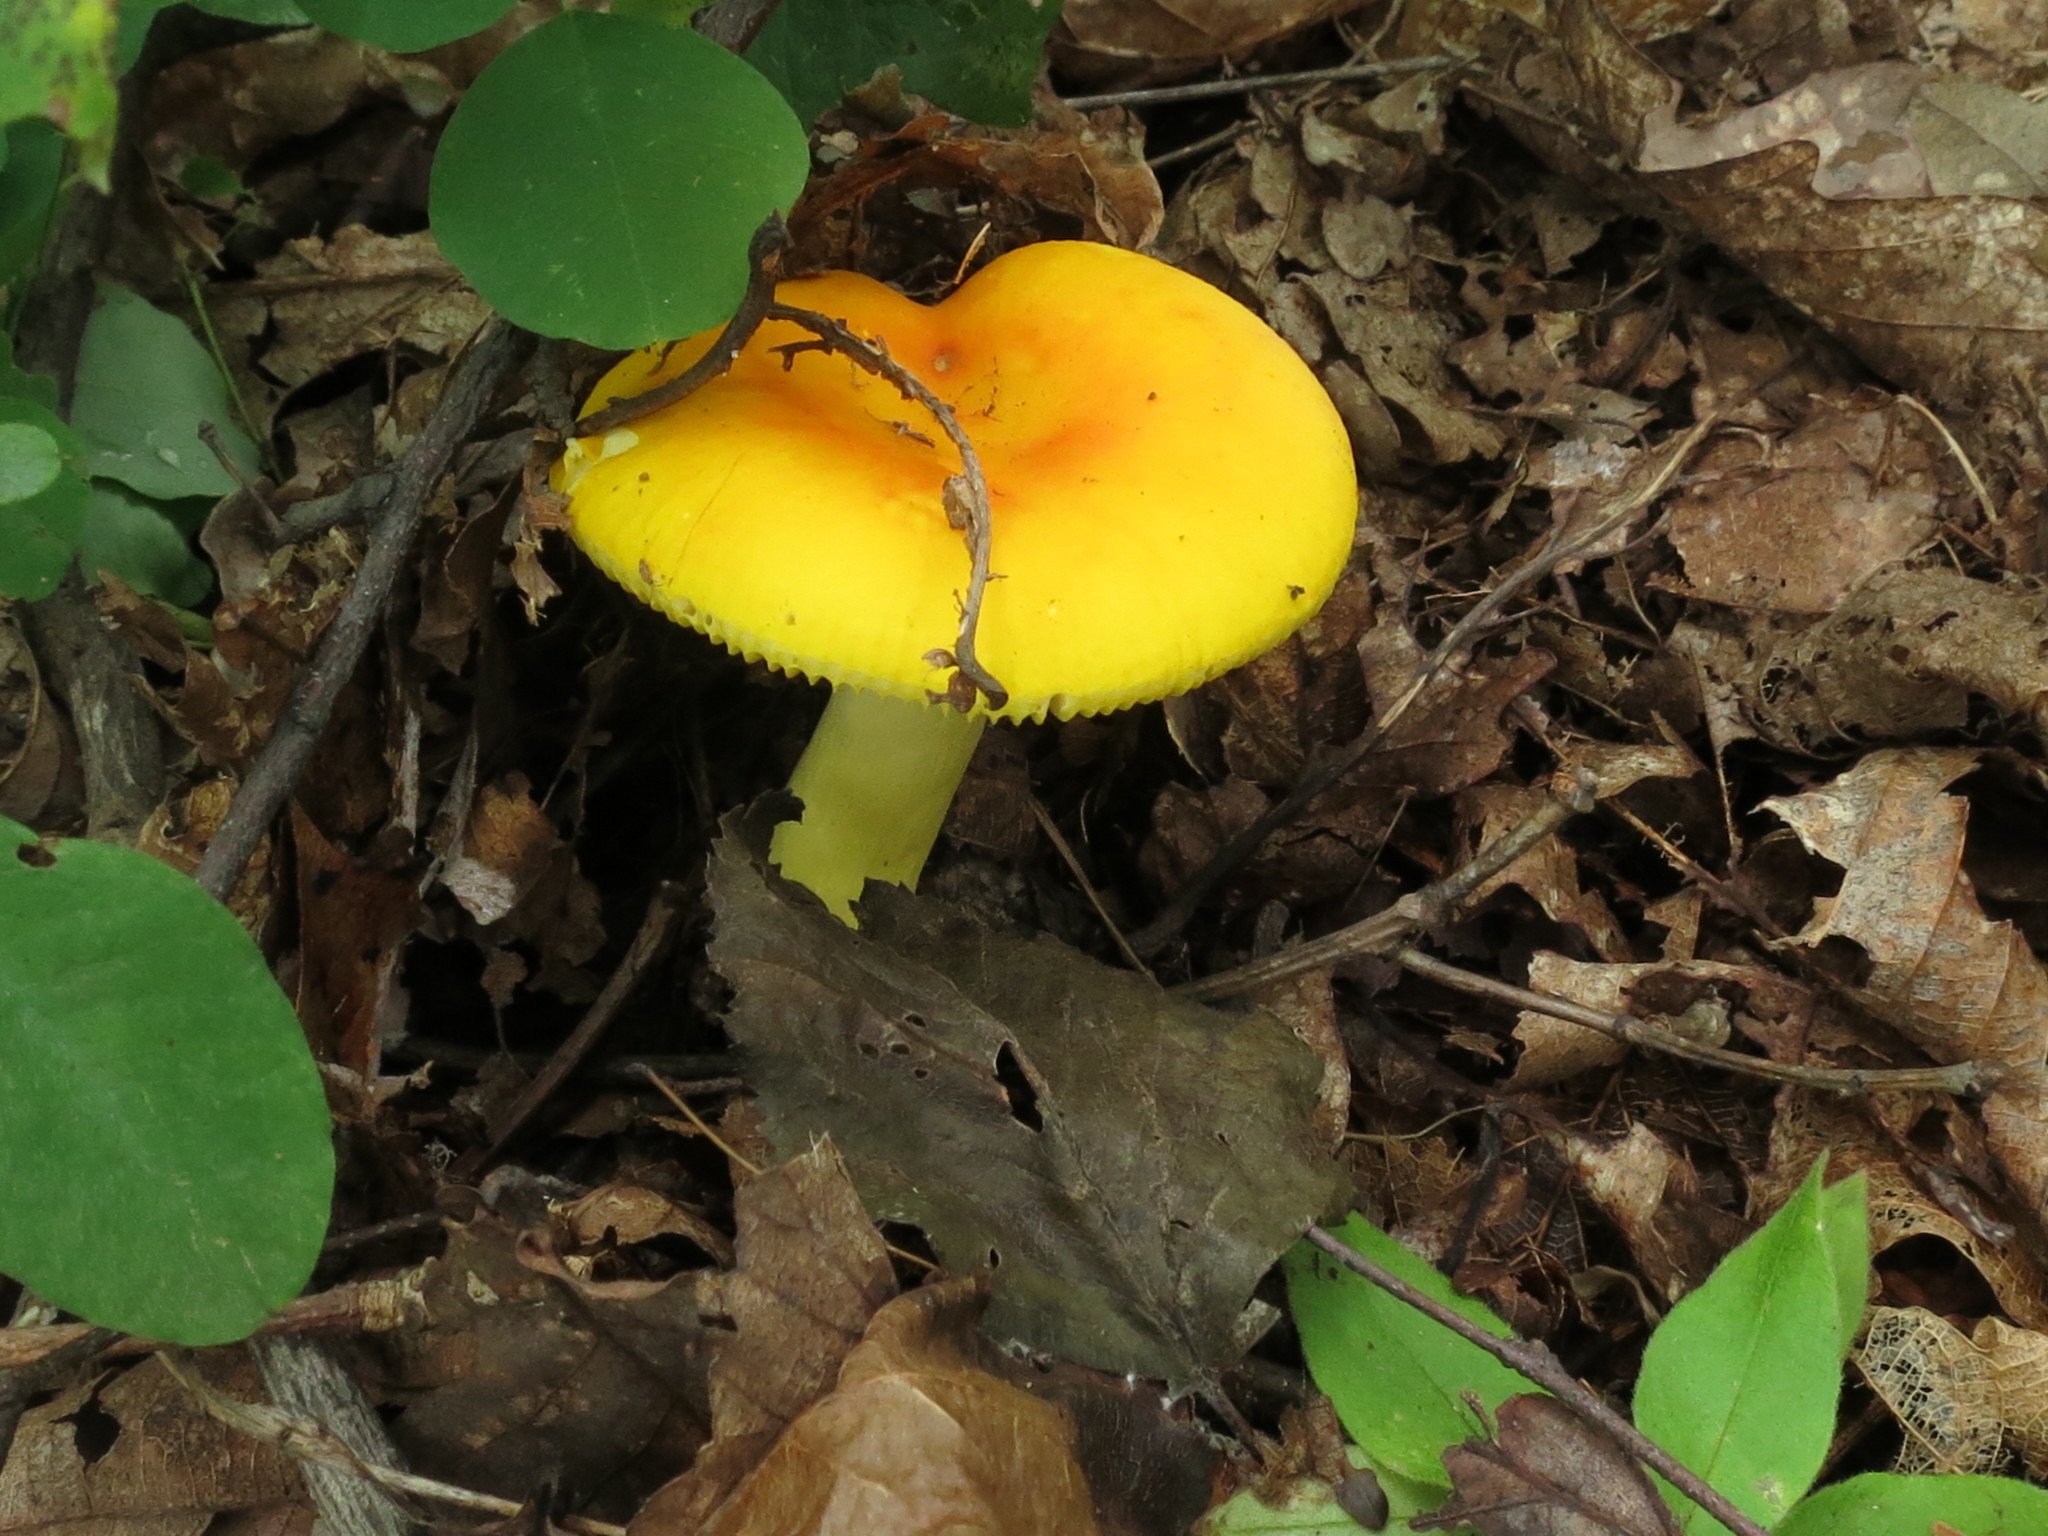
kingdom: Fungi
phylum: Basidiomycota
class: Agaricomycetes
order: Russulales
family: Russulaceae
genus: Russula
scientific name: Russula aurea
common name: Gilded brittlegill
